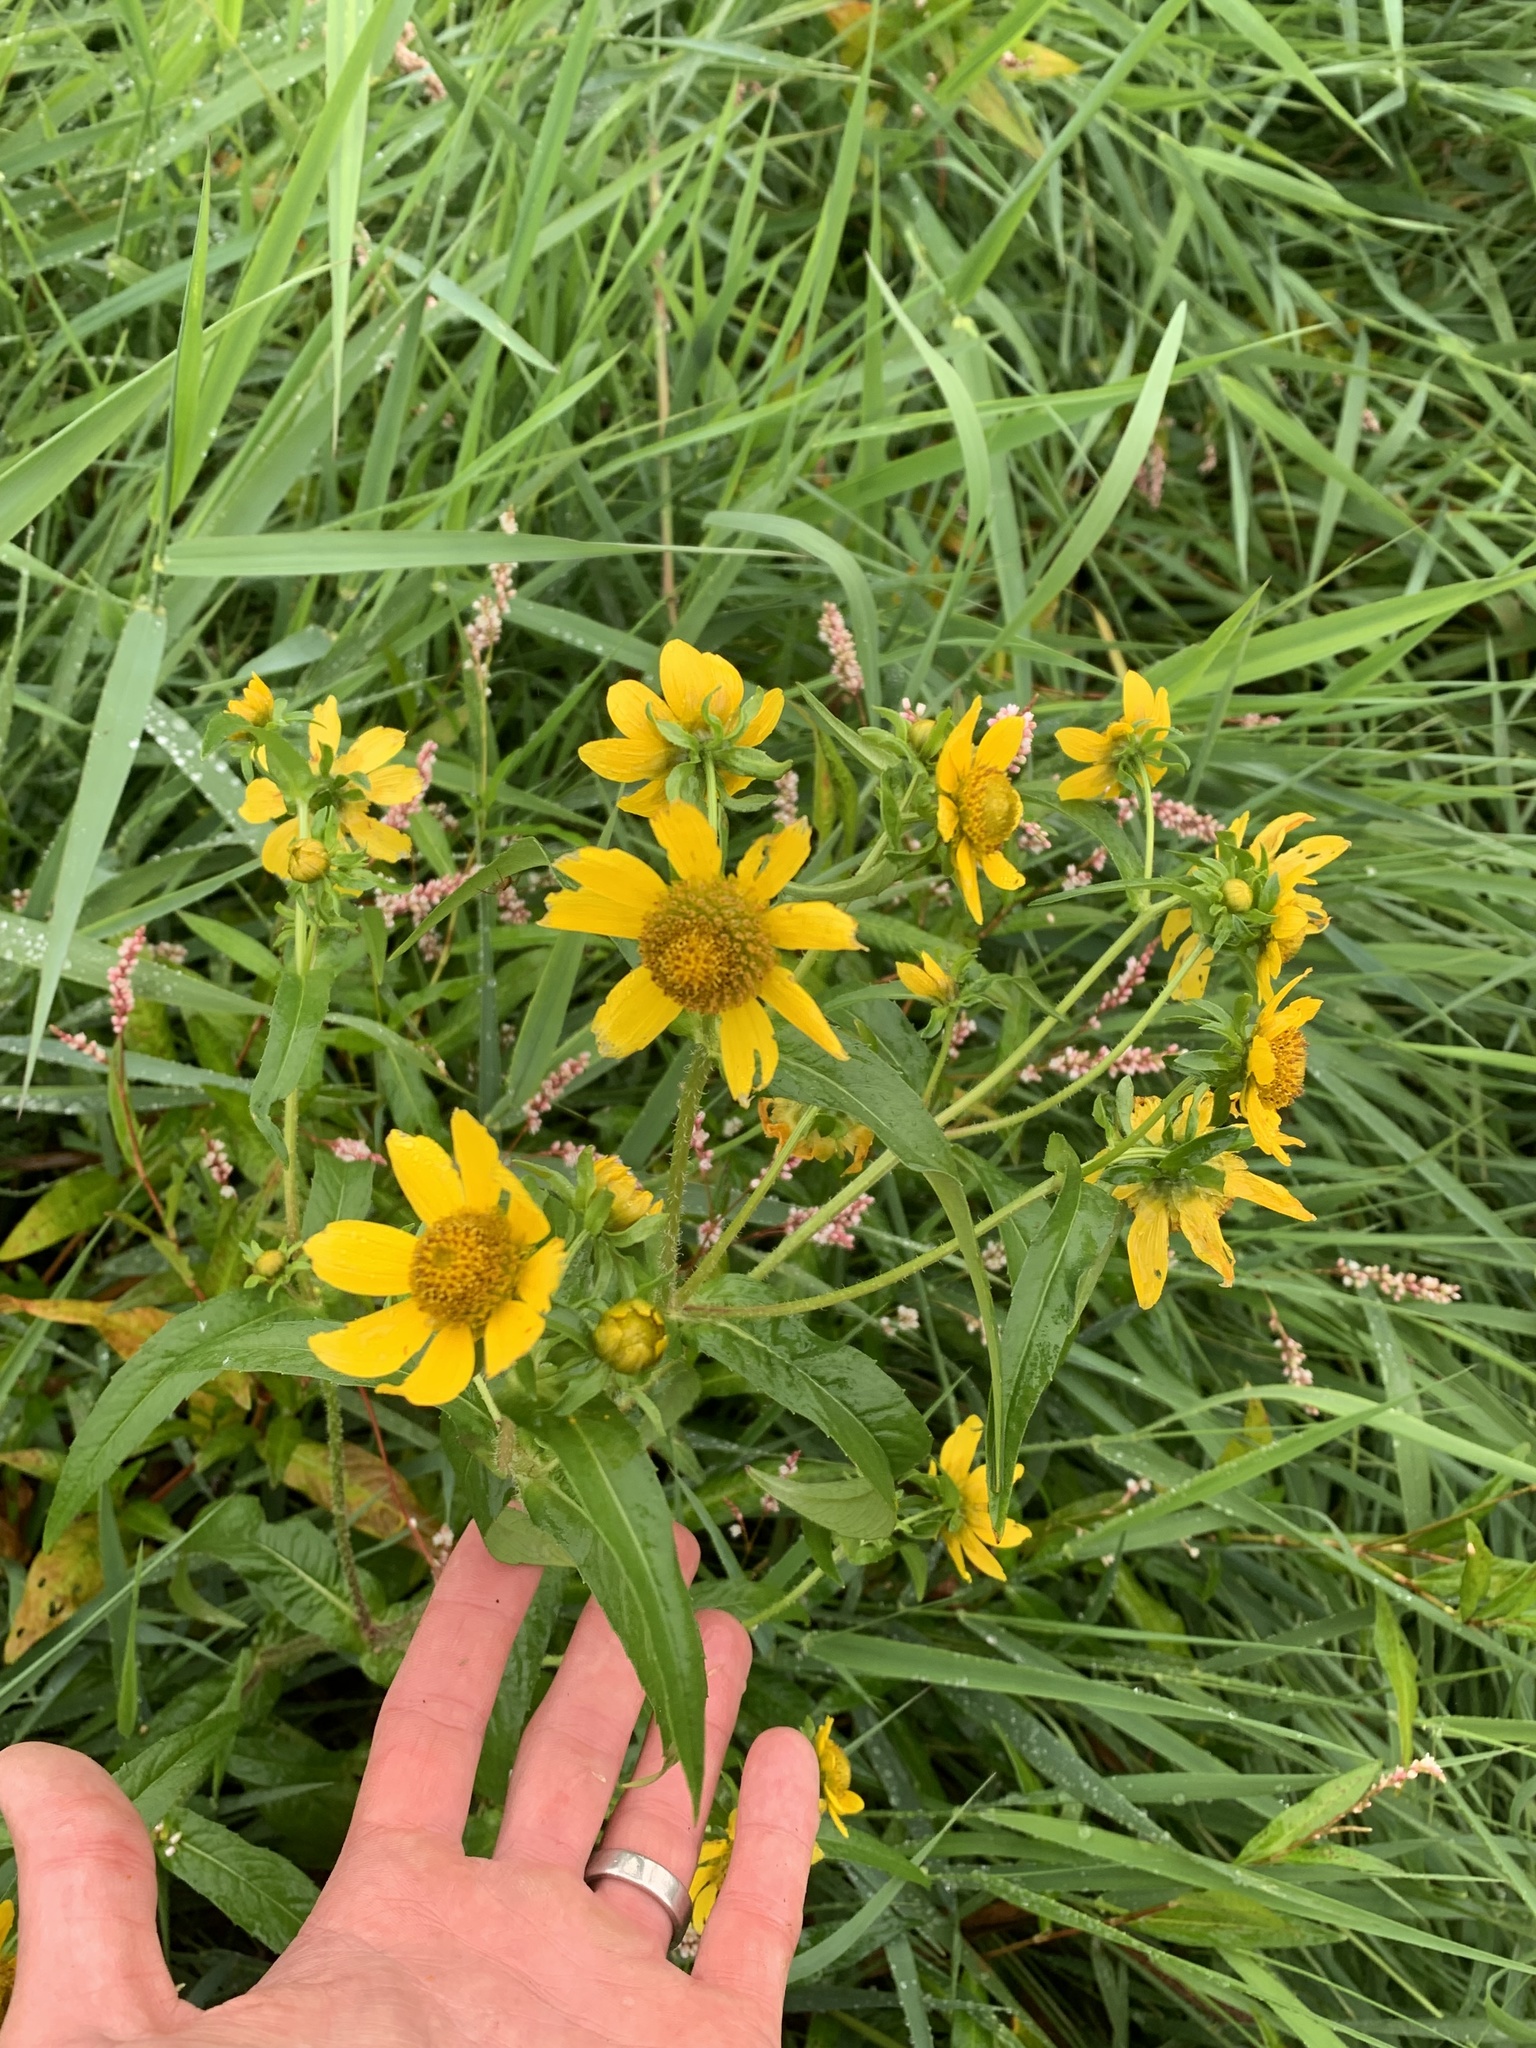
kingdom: Plantae
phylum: Tracheophyta
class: Magnoliopsida
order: Asterales
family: Asteraceae
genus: Bidens
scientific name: Bidens cernua
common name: Nodding bur-marigold
